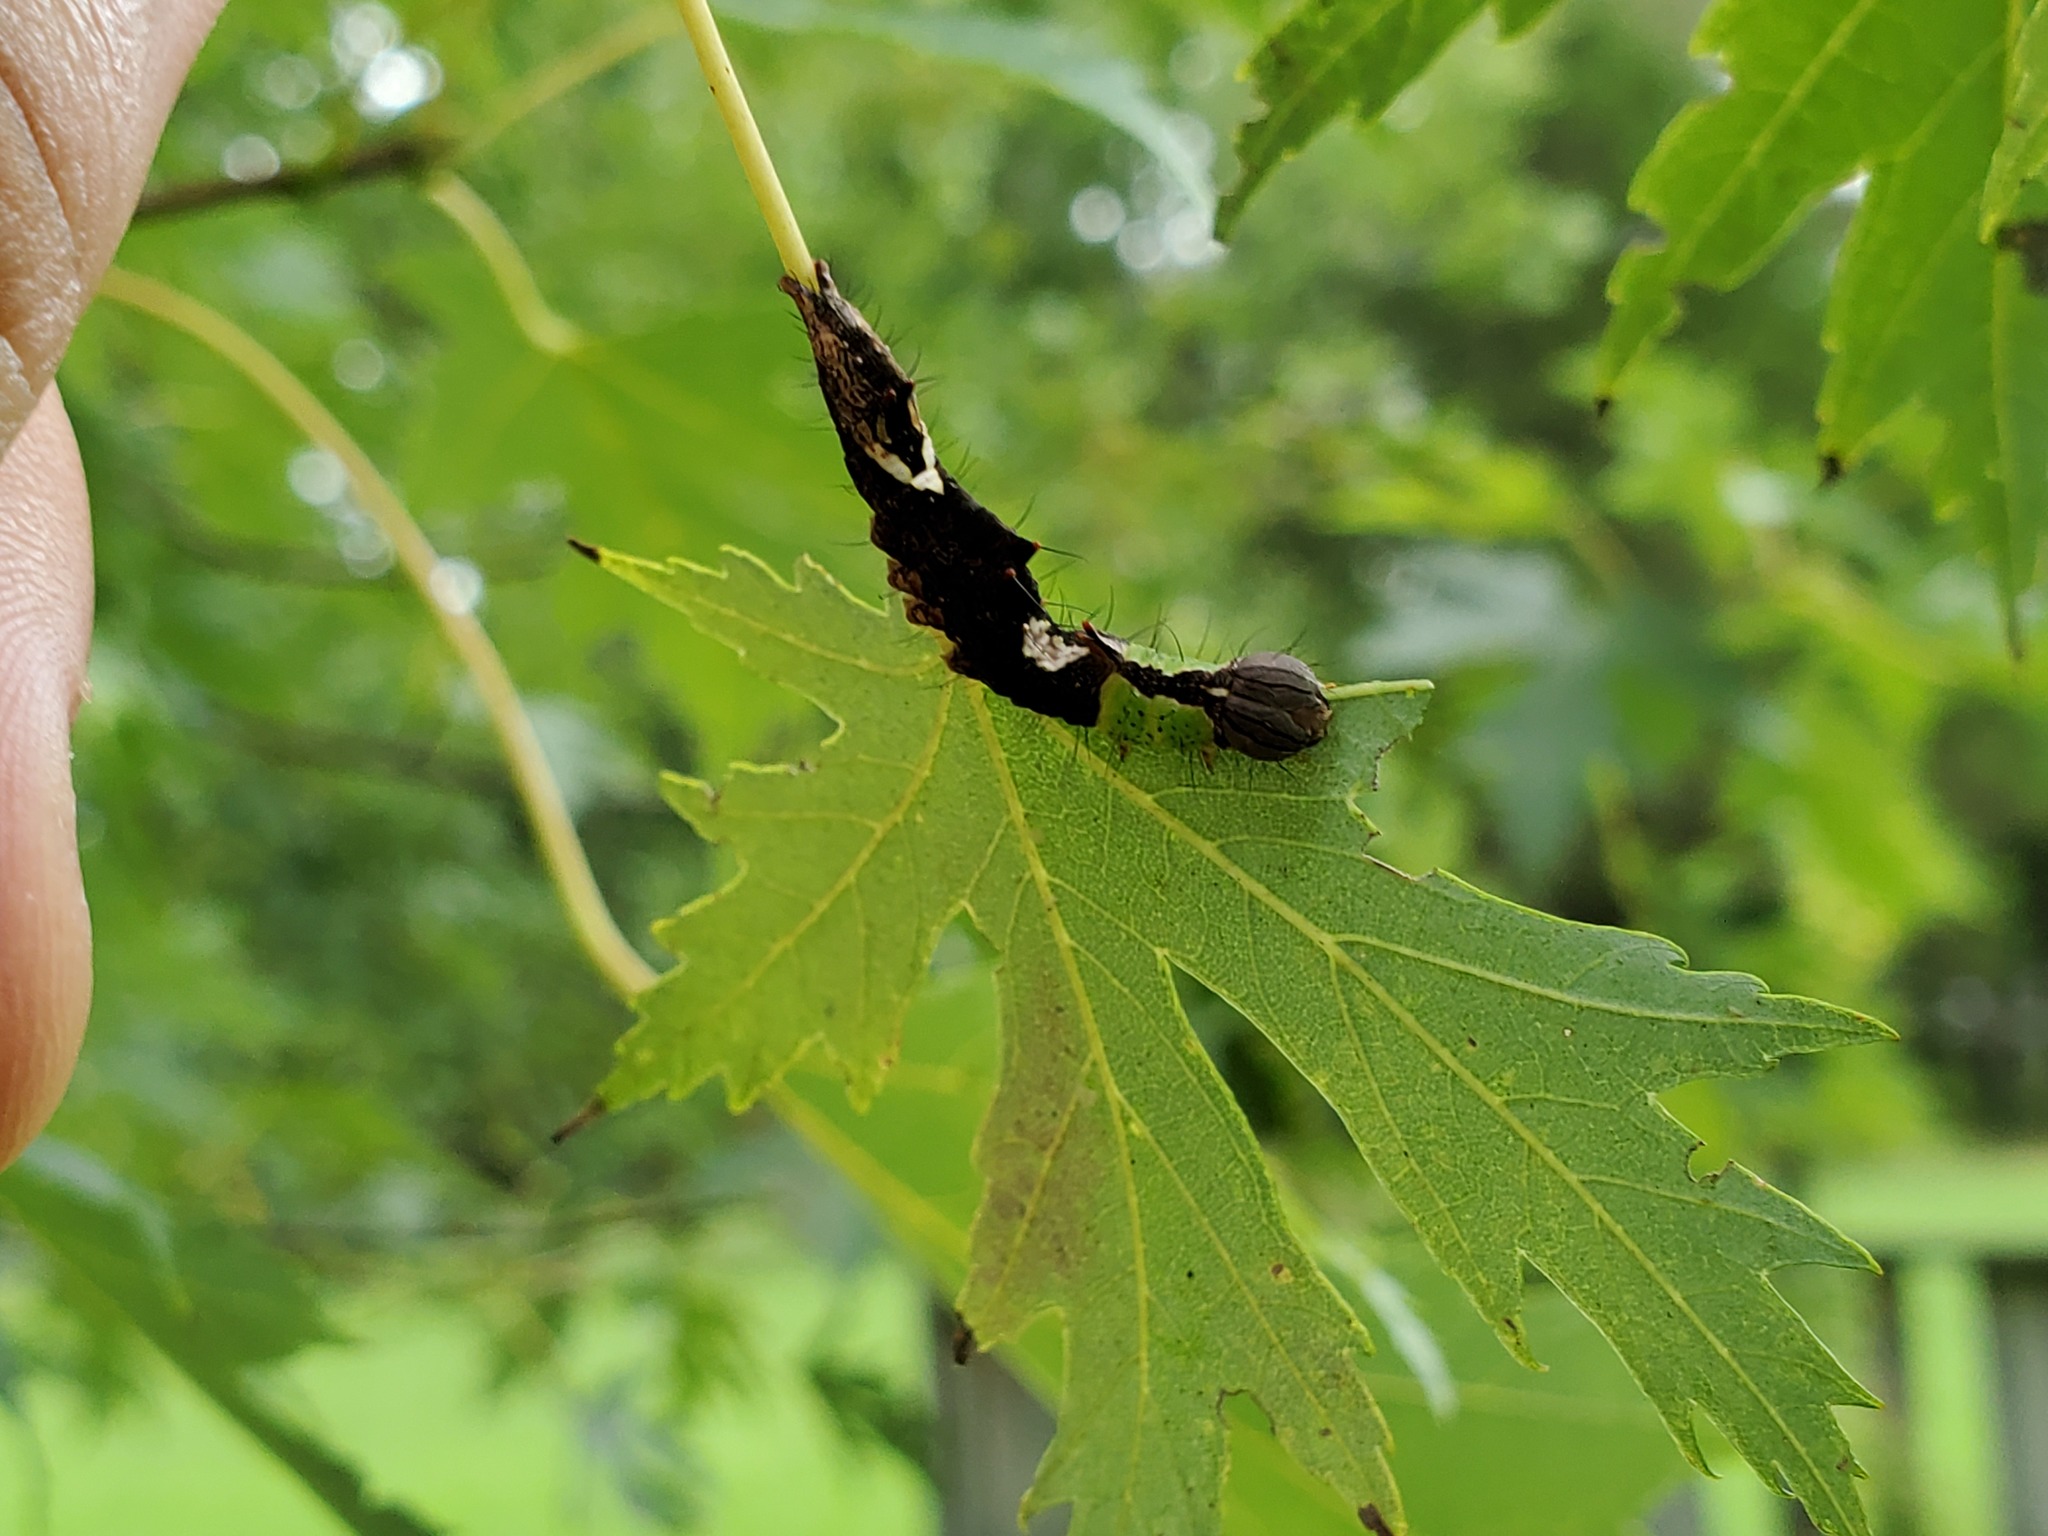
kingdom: Animalia
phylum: Arthropoda
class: Insecta
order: Lepidoptera
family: Notodontidae
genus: Schizura
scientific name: Schizura ipomaeae
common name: Morning-glory prominent
